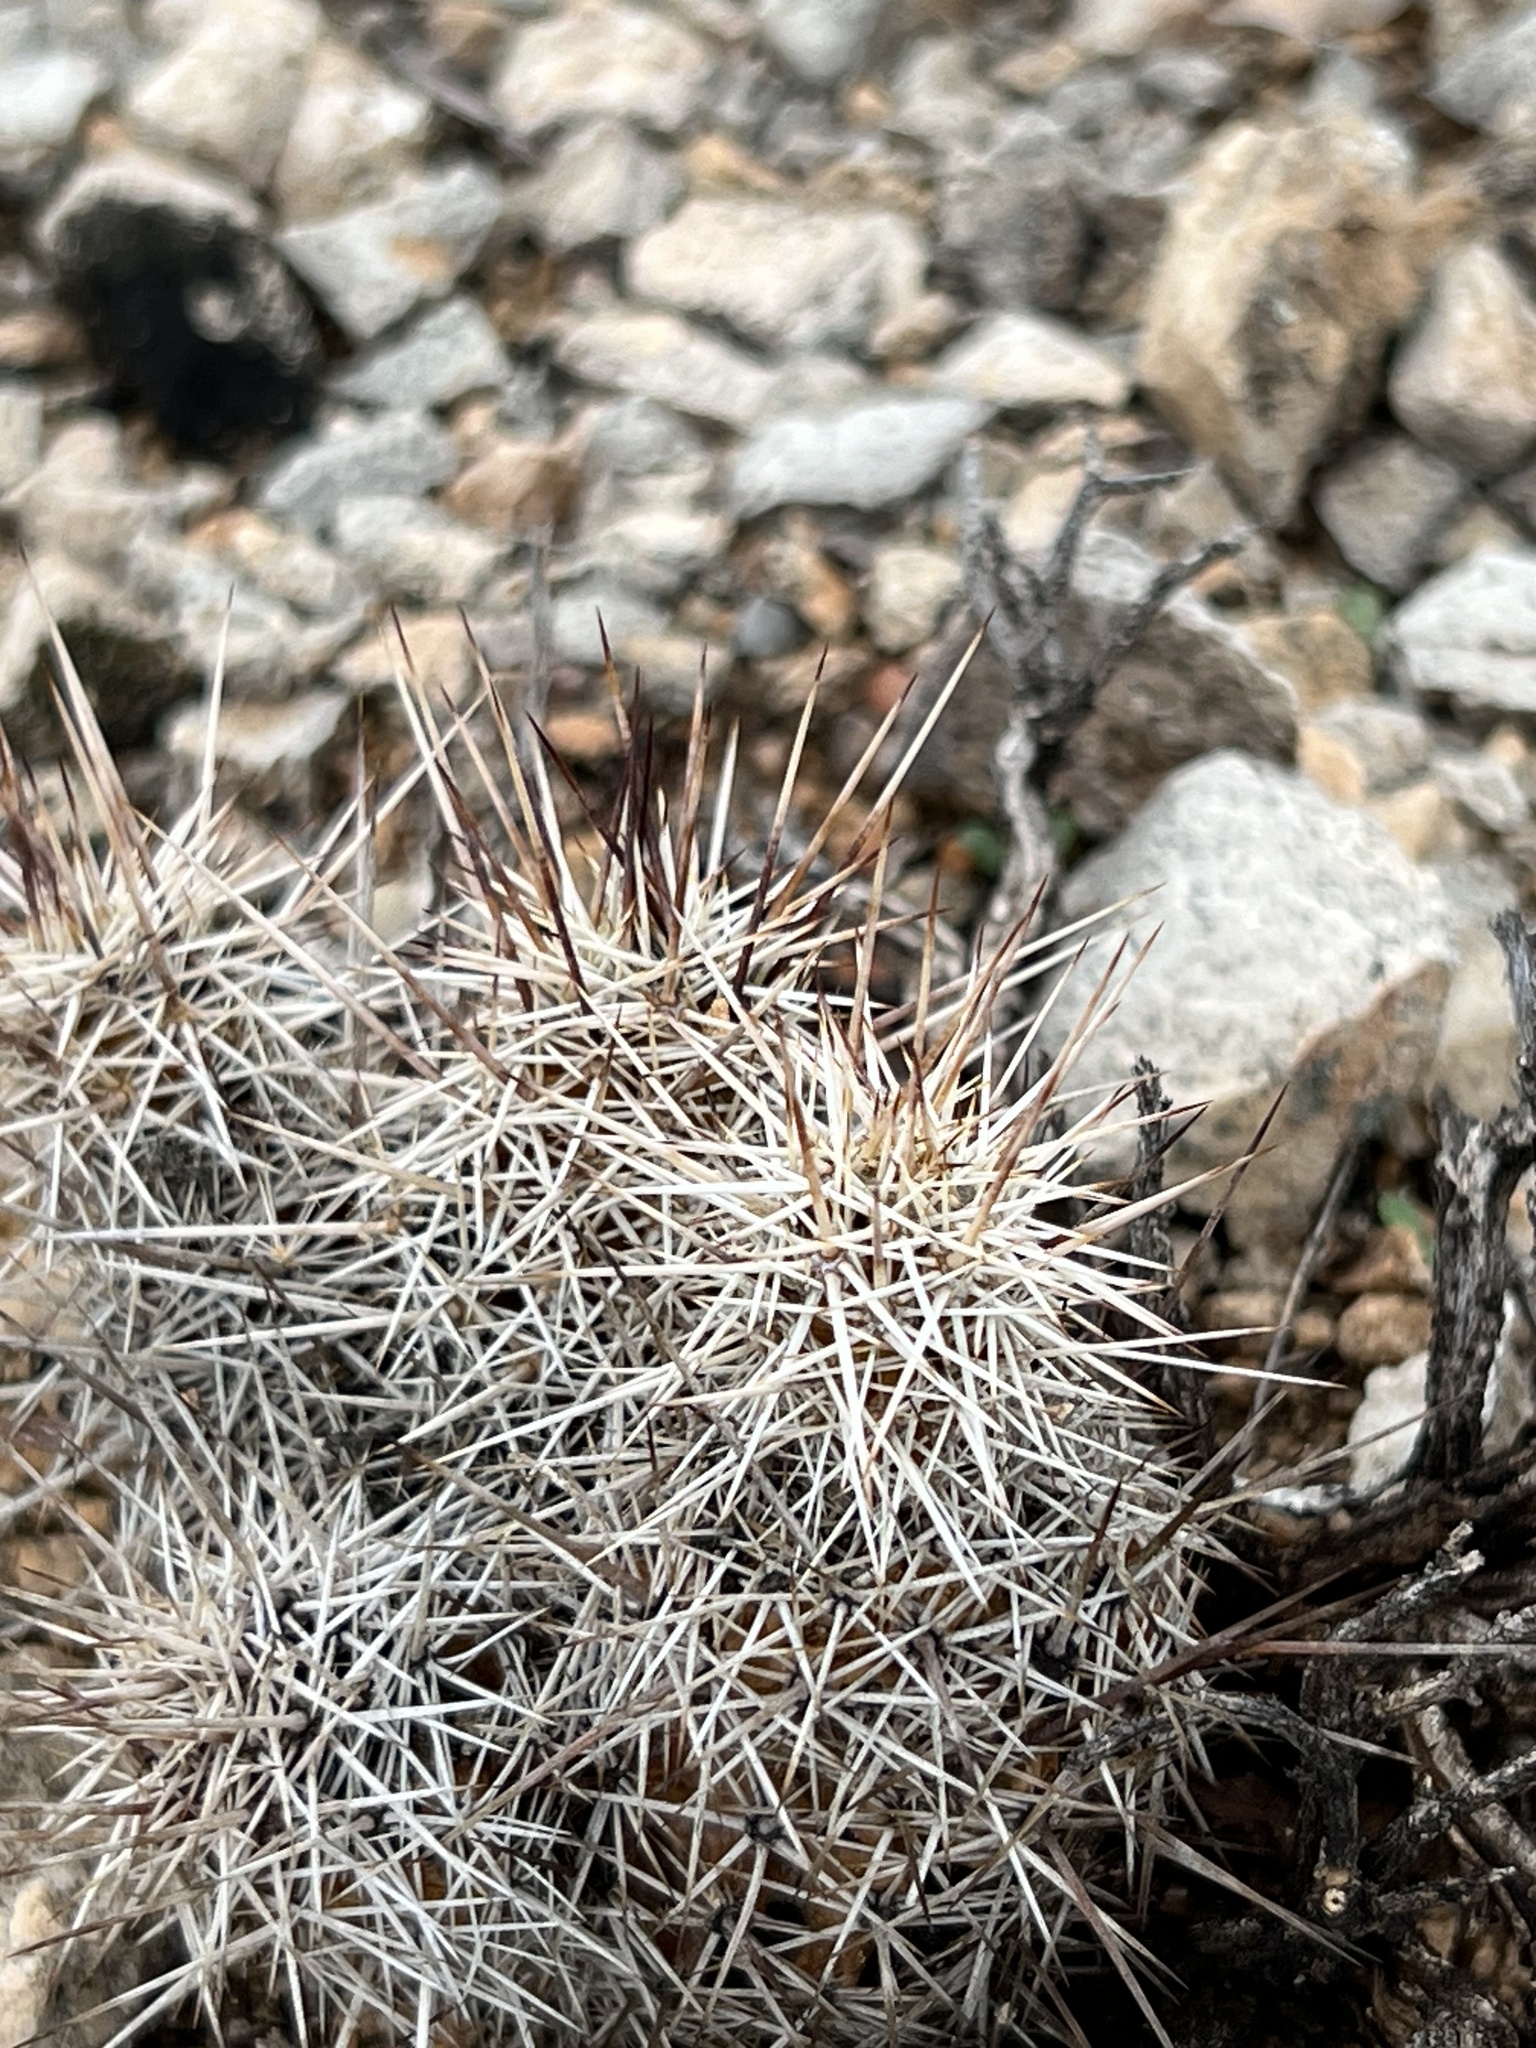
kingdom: Plantae
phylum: Tracheophyta
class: Magnoliopsida
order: Caryophyllales
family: Cactaceae
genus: Echinocereus
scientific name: Echinocereus fasciculatus
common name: Bundle hedgehog
